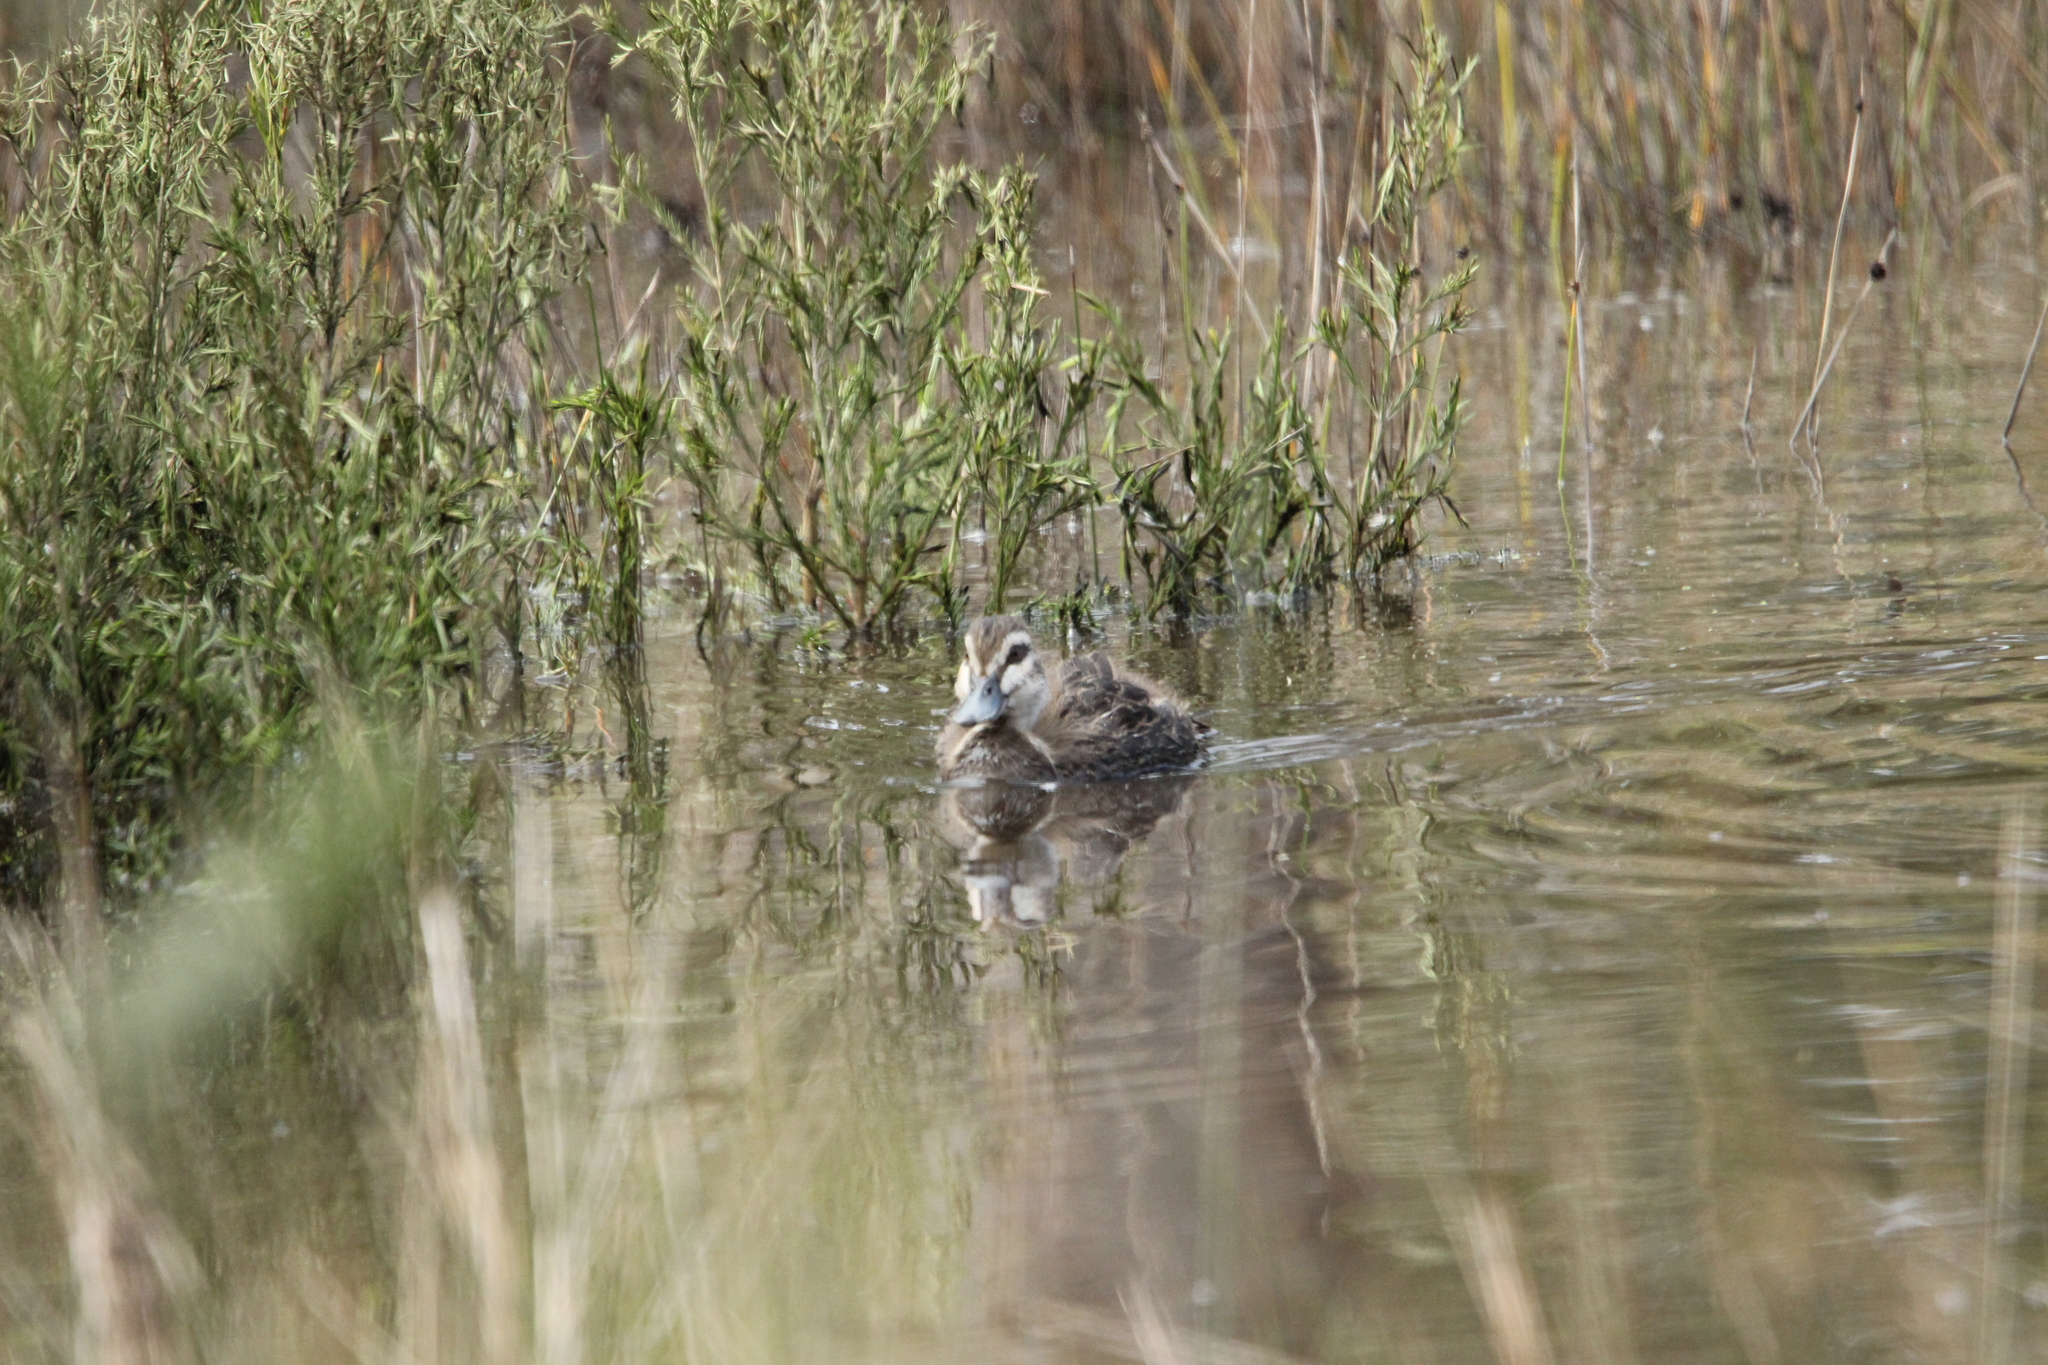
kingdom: Animalia
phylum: Chordata
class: Aves
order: Anseriformes
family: Anatidae
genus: Anas
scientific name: Anas superciliosa
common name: Pacific black duck
